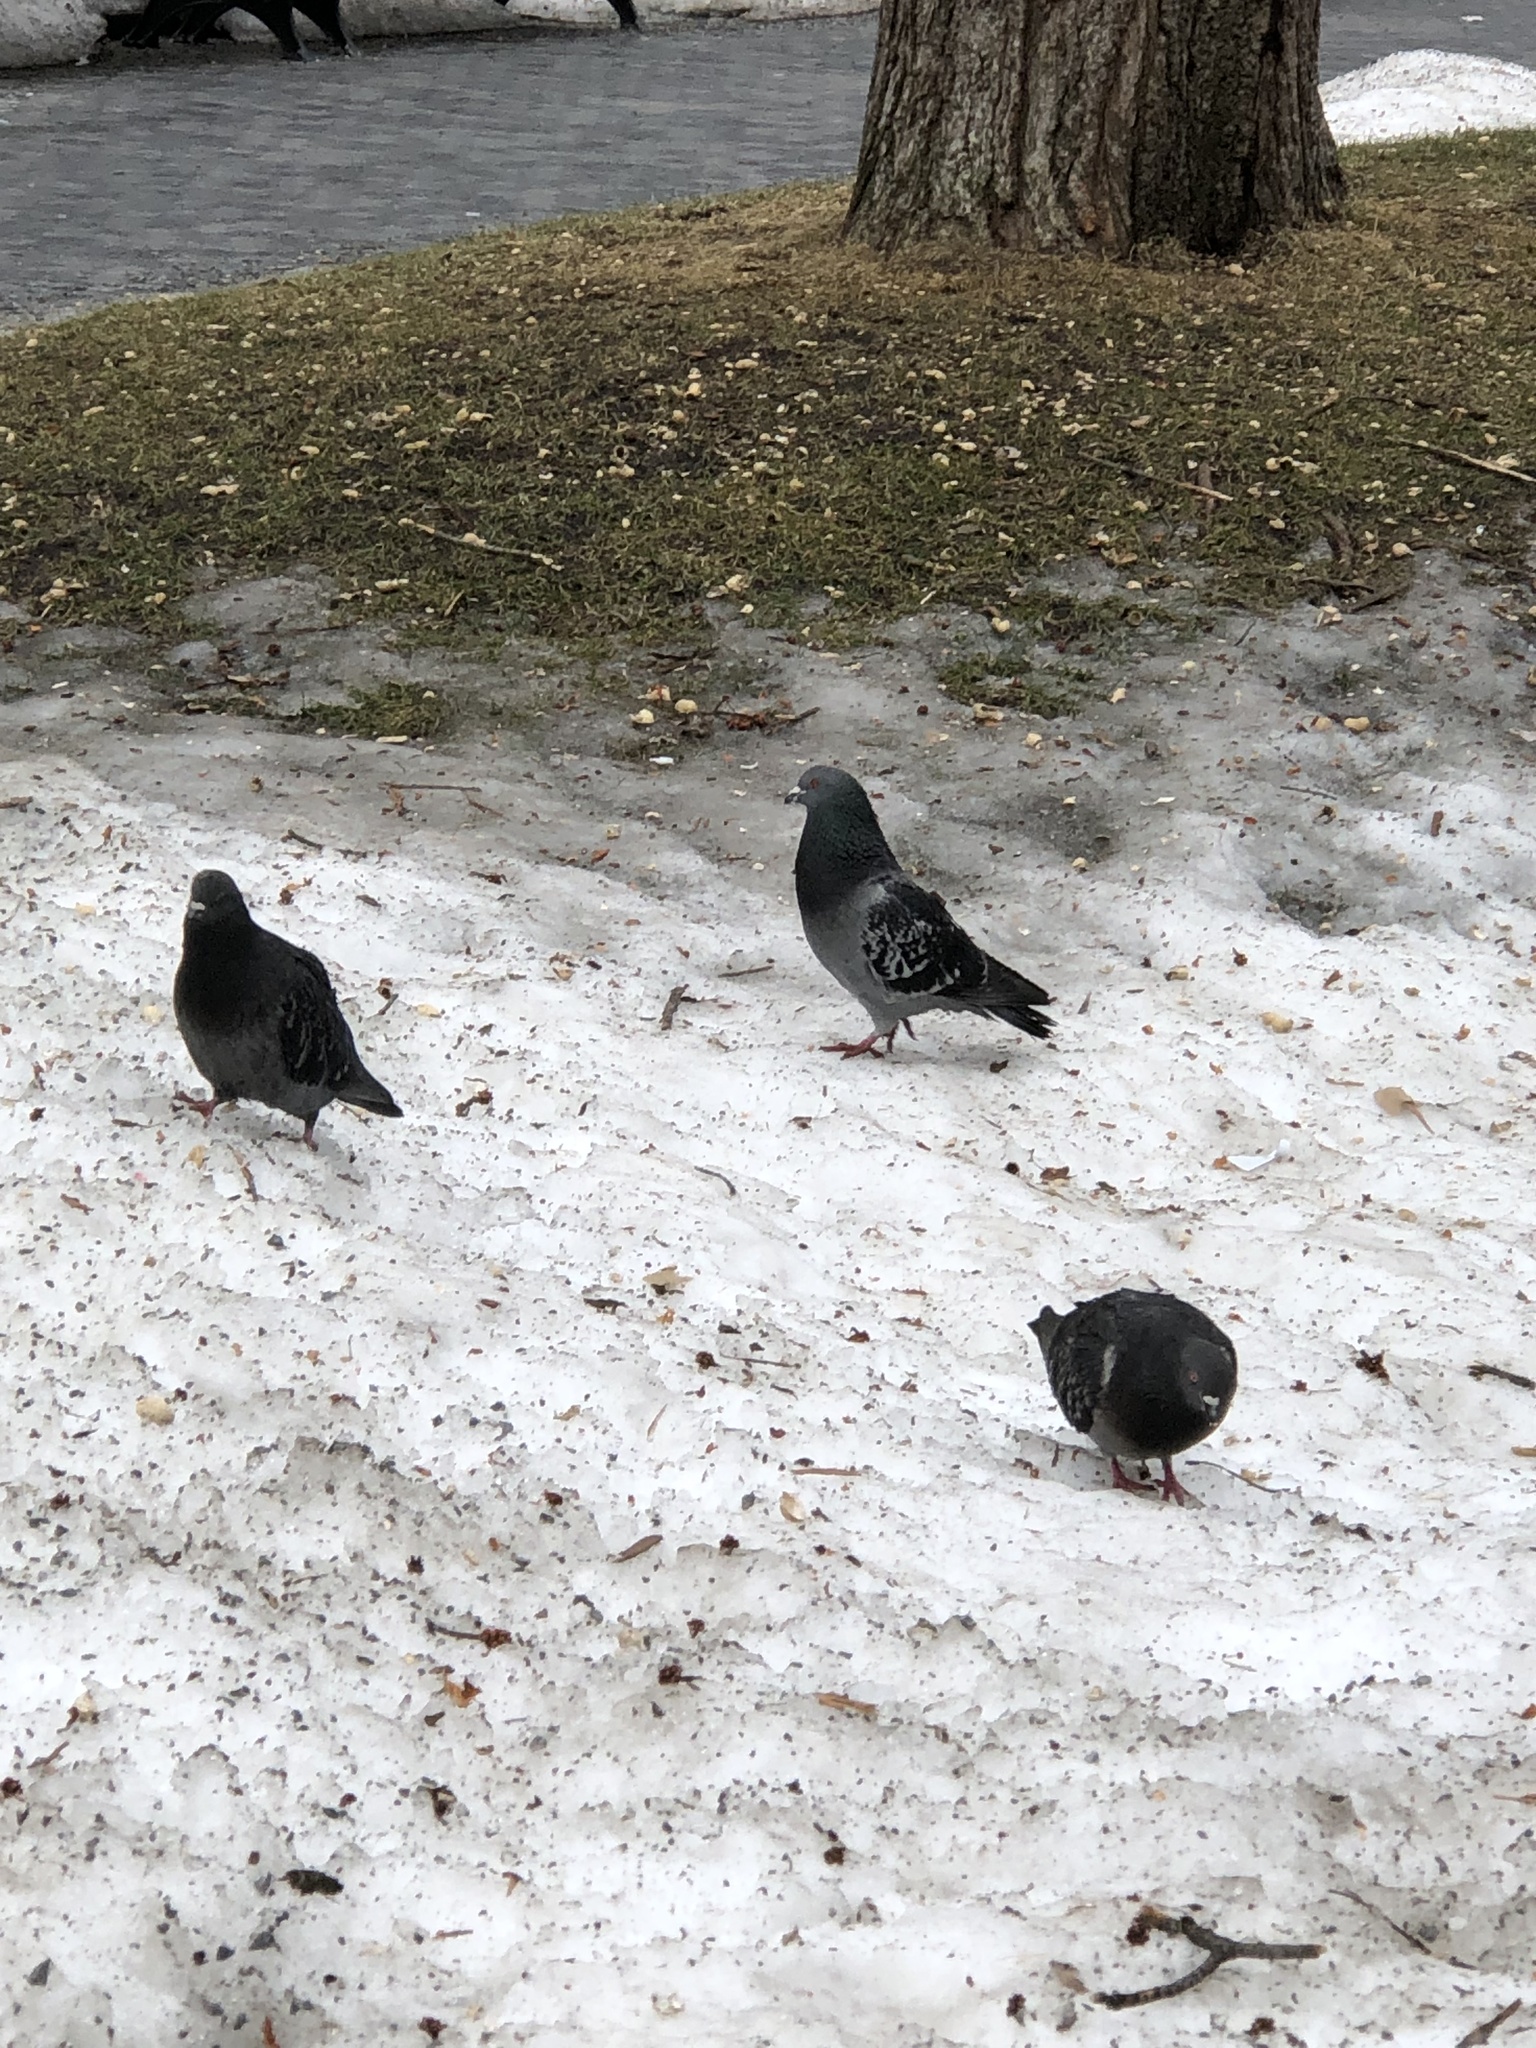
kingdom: Animalia
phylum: Chordata
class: Aves
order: Columbiformes
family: Columbidae
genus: Columba
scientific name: Columba livia
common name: Rock pigeon
